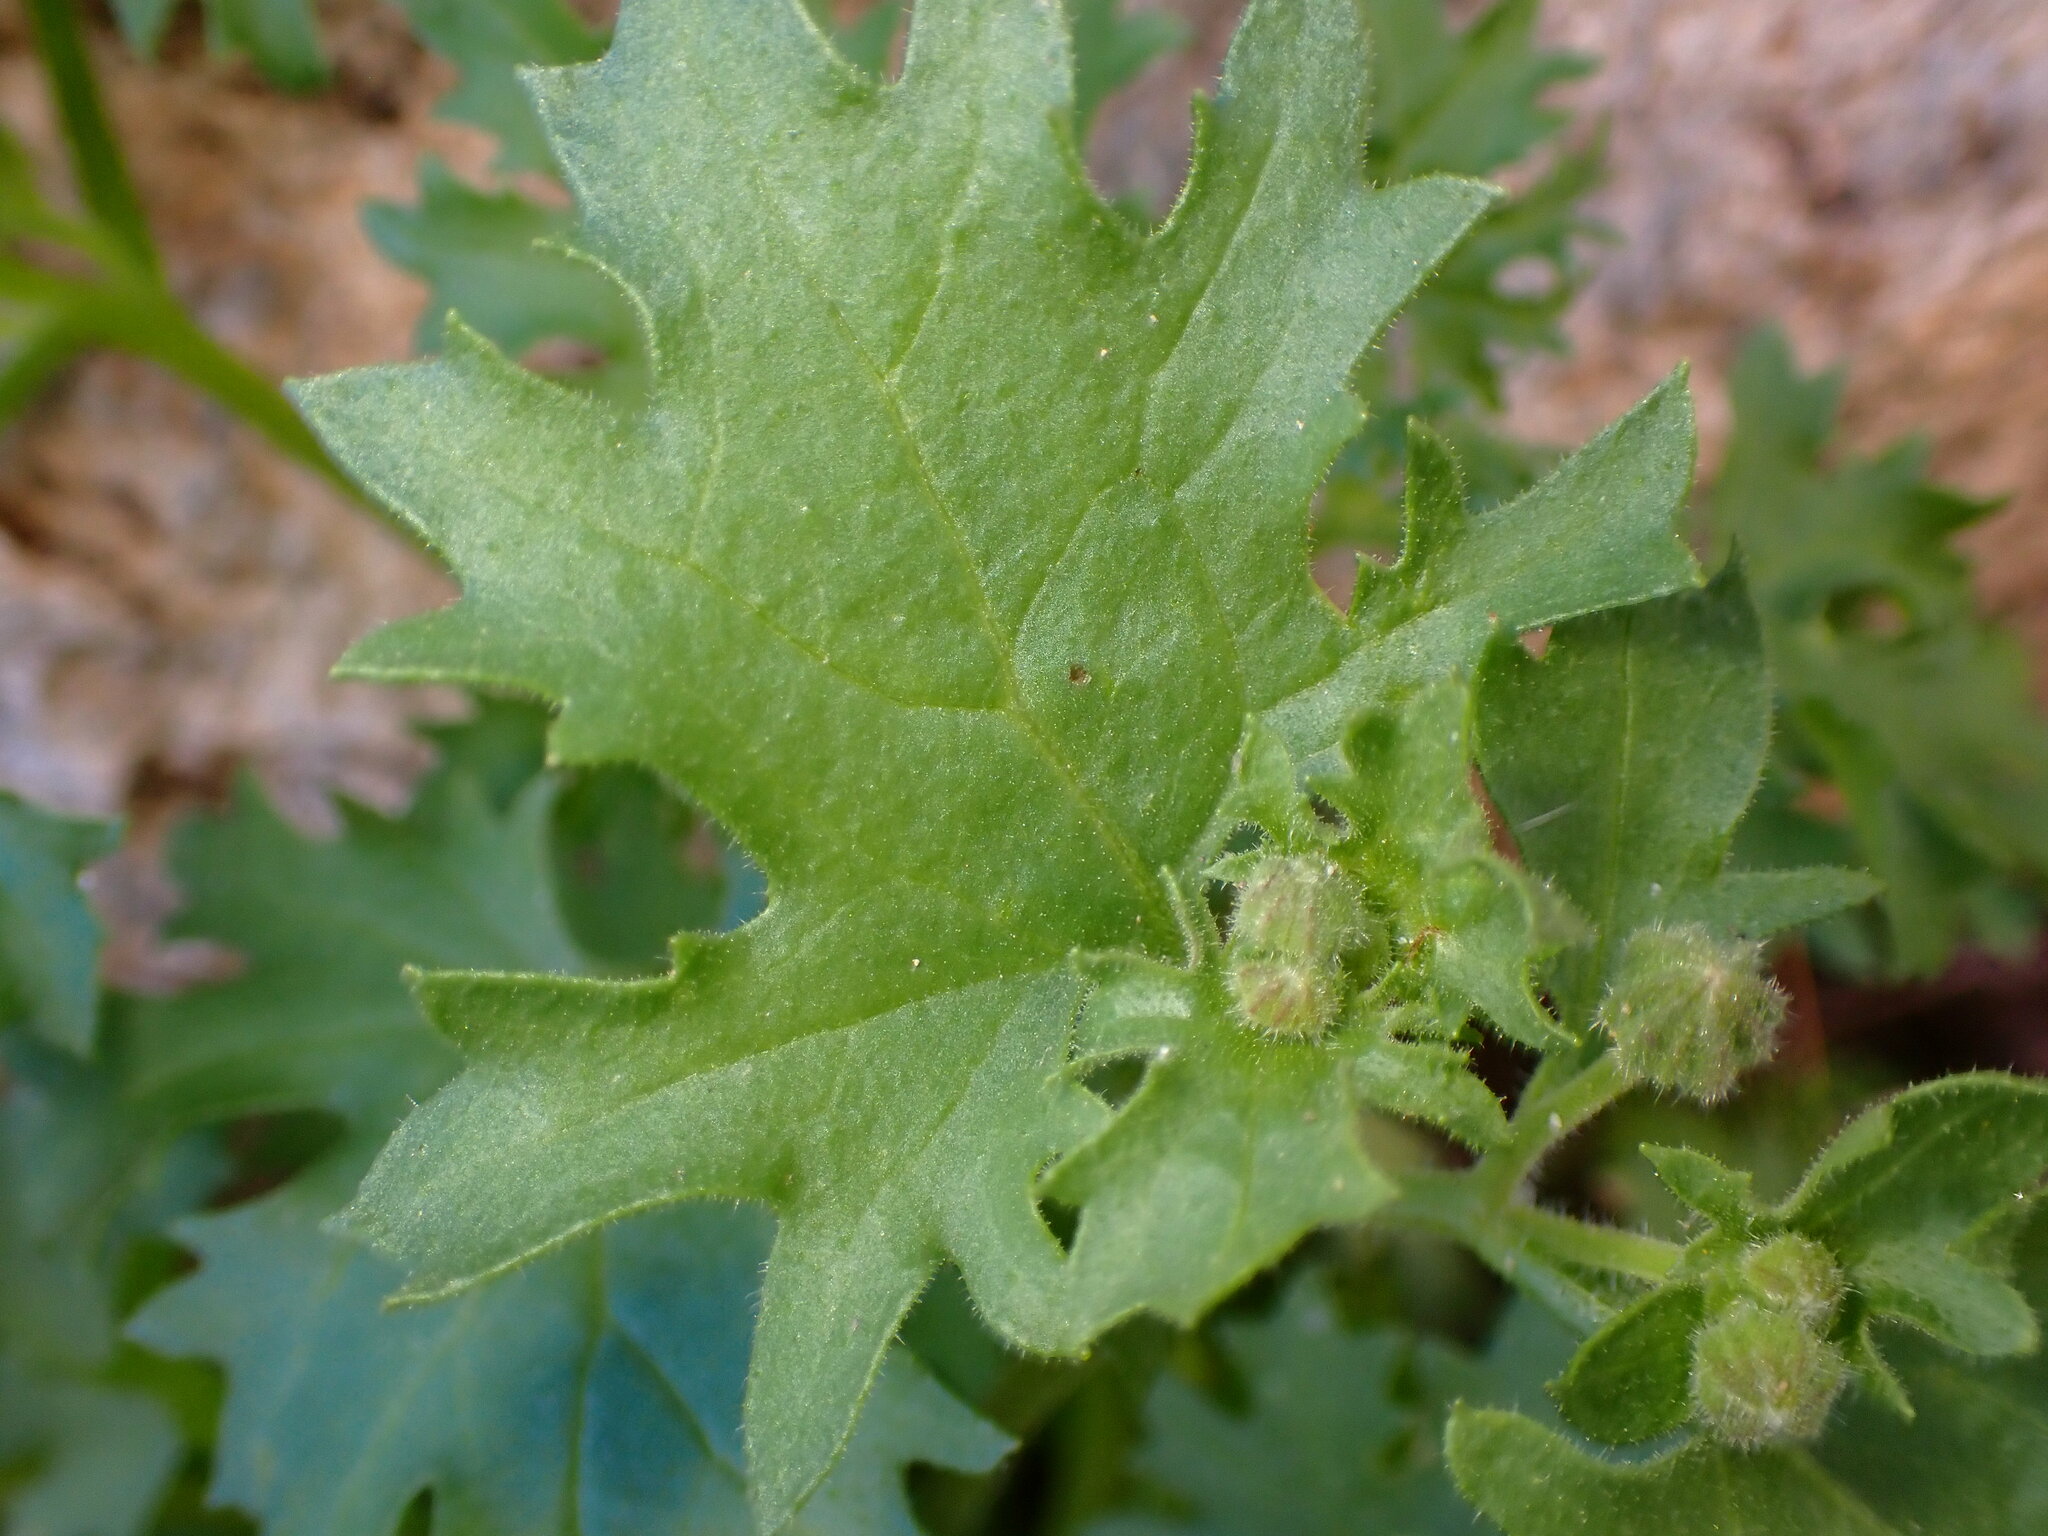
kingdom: Plantae
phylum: Tracheophyta
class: Magnoliopsida
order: Asterales
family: Asteraceae
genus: Laphamia
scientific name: Laphamia emoryi
